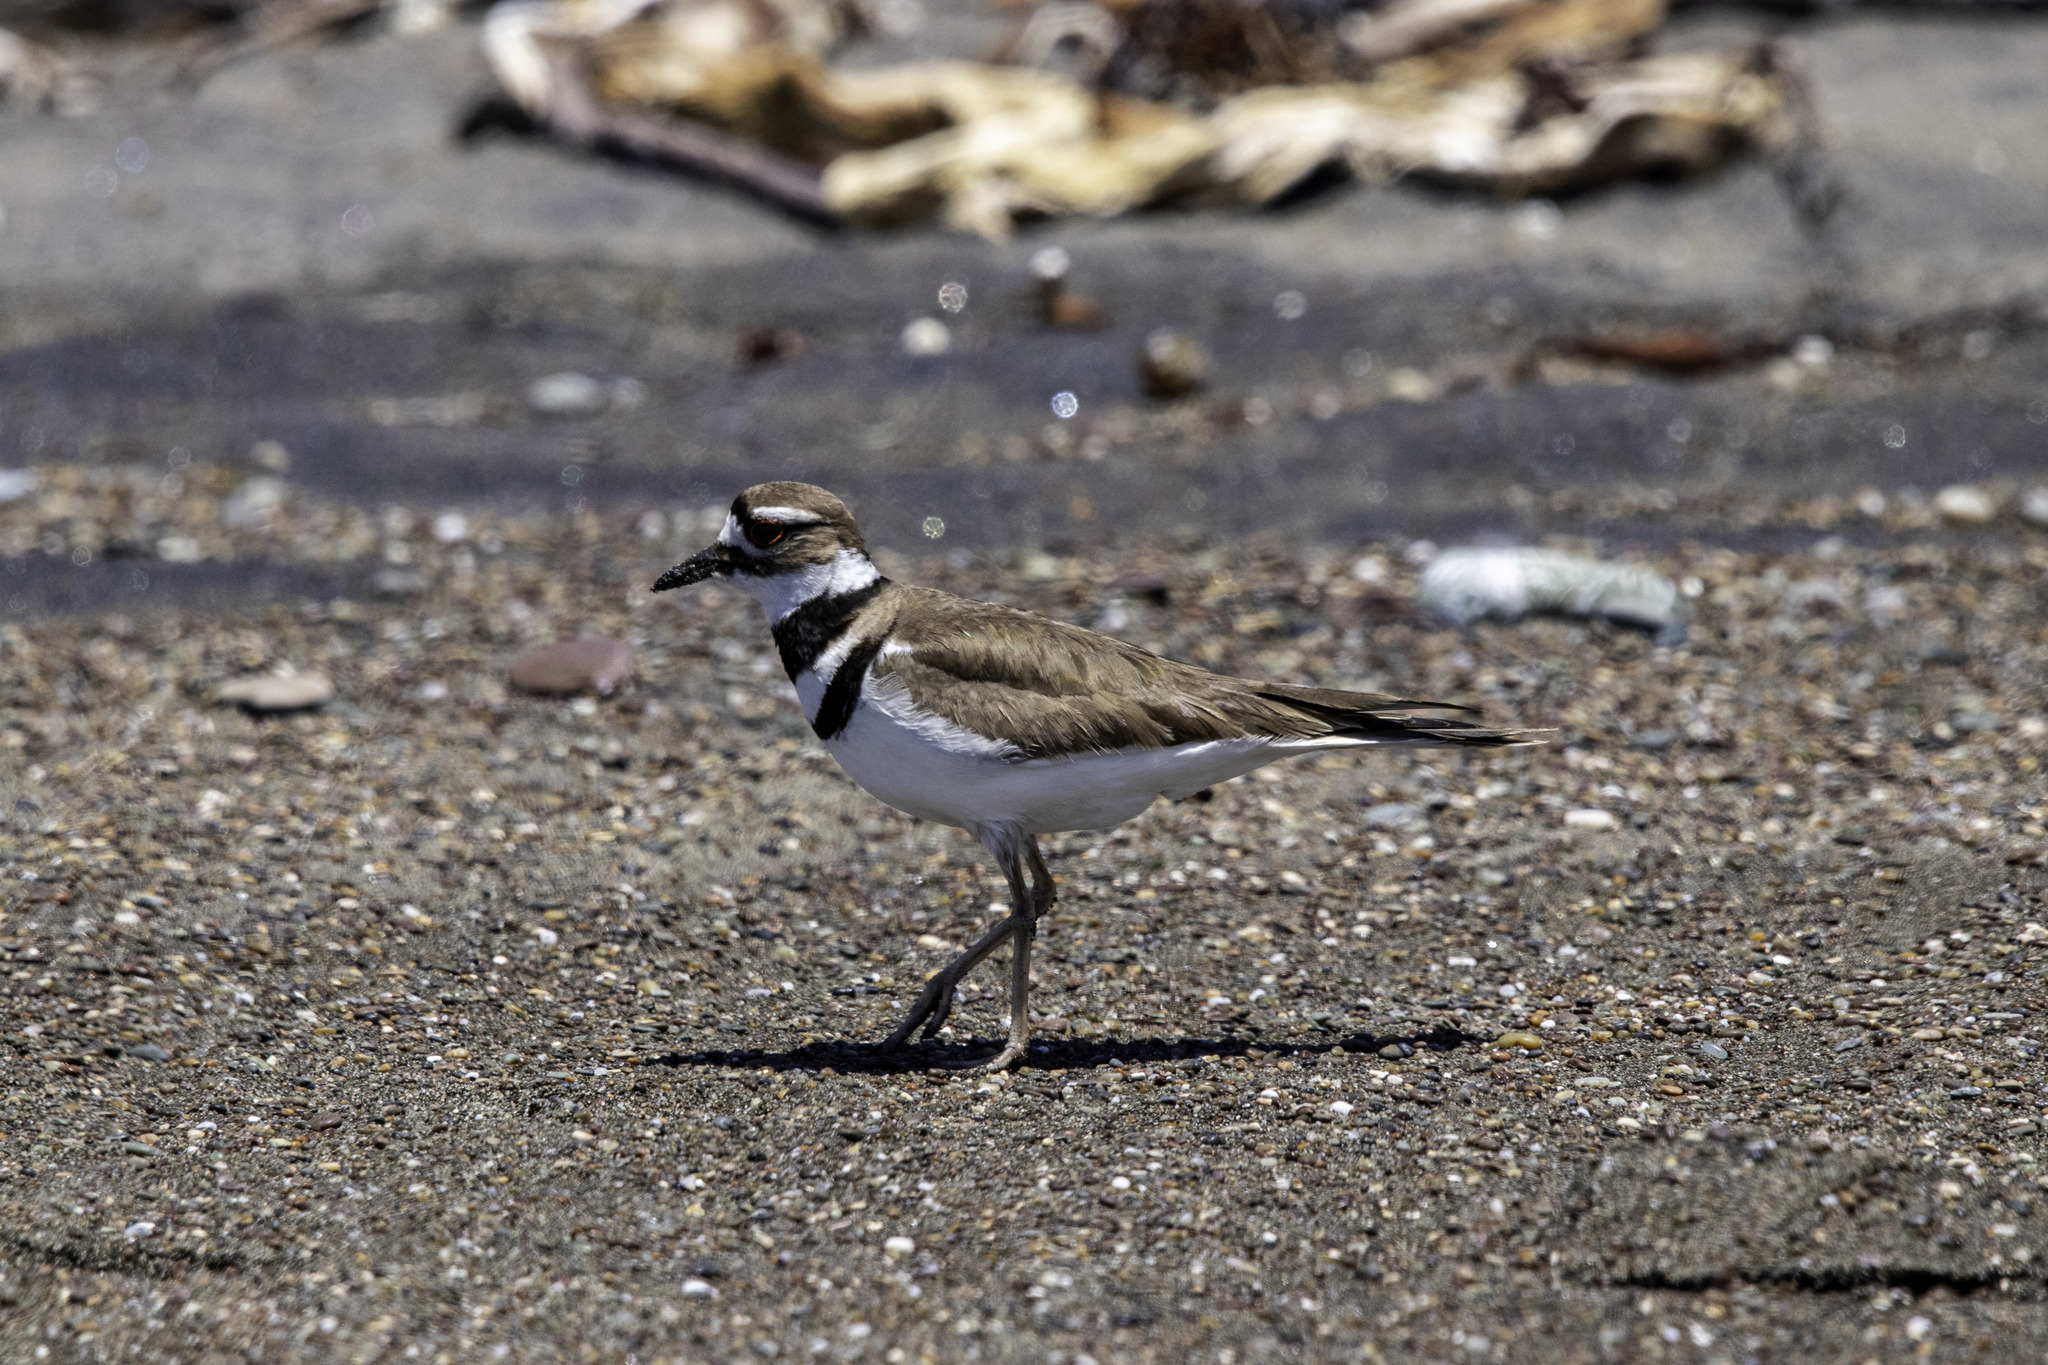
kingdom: Animalia
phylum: Chordata
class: Aves
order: Charadriiformes
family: Charadriidae
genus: Charadrius
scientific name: Charadrius vociferus
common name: Killdeer
